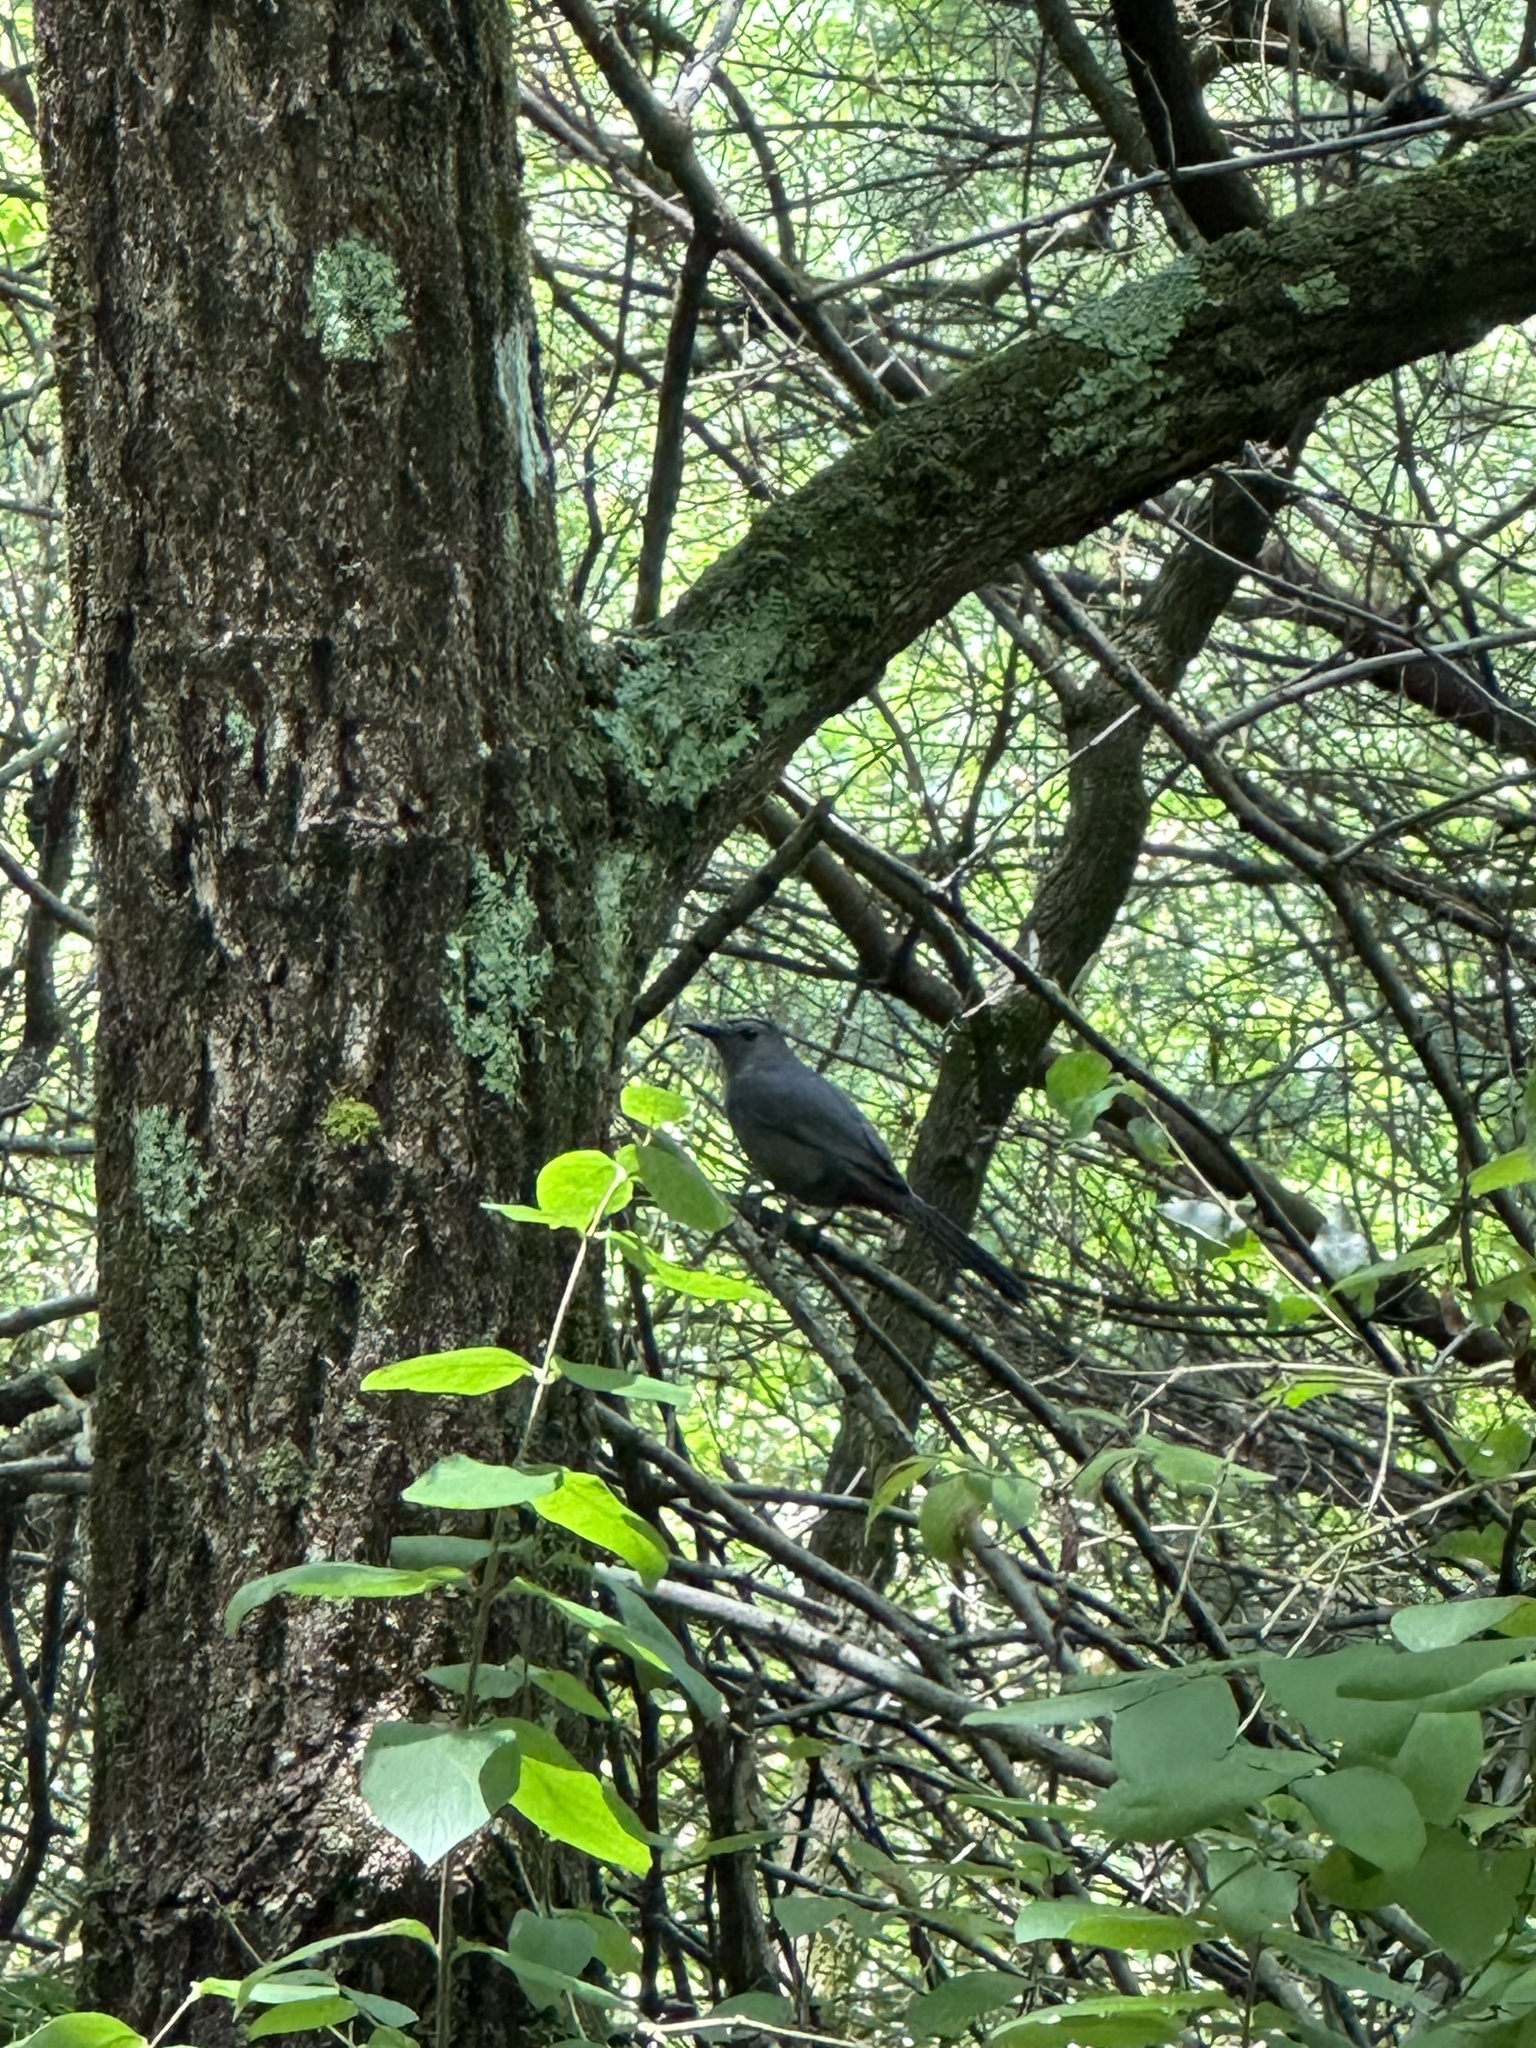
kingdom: Animalia
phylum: Chordata
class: Aves
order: Passeriformes
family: Mimidae
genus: Dumetella
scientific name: Dumetella carolinensis
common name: Gray catbird
